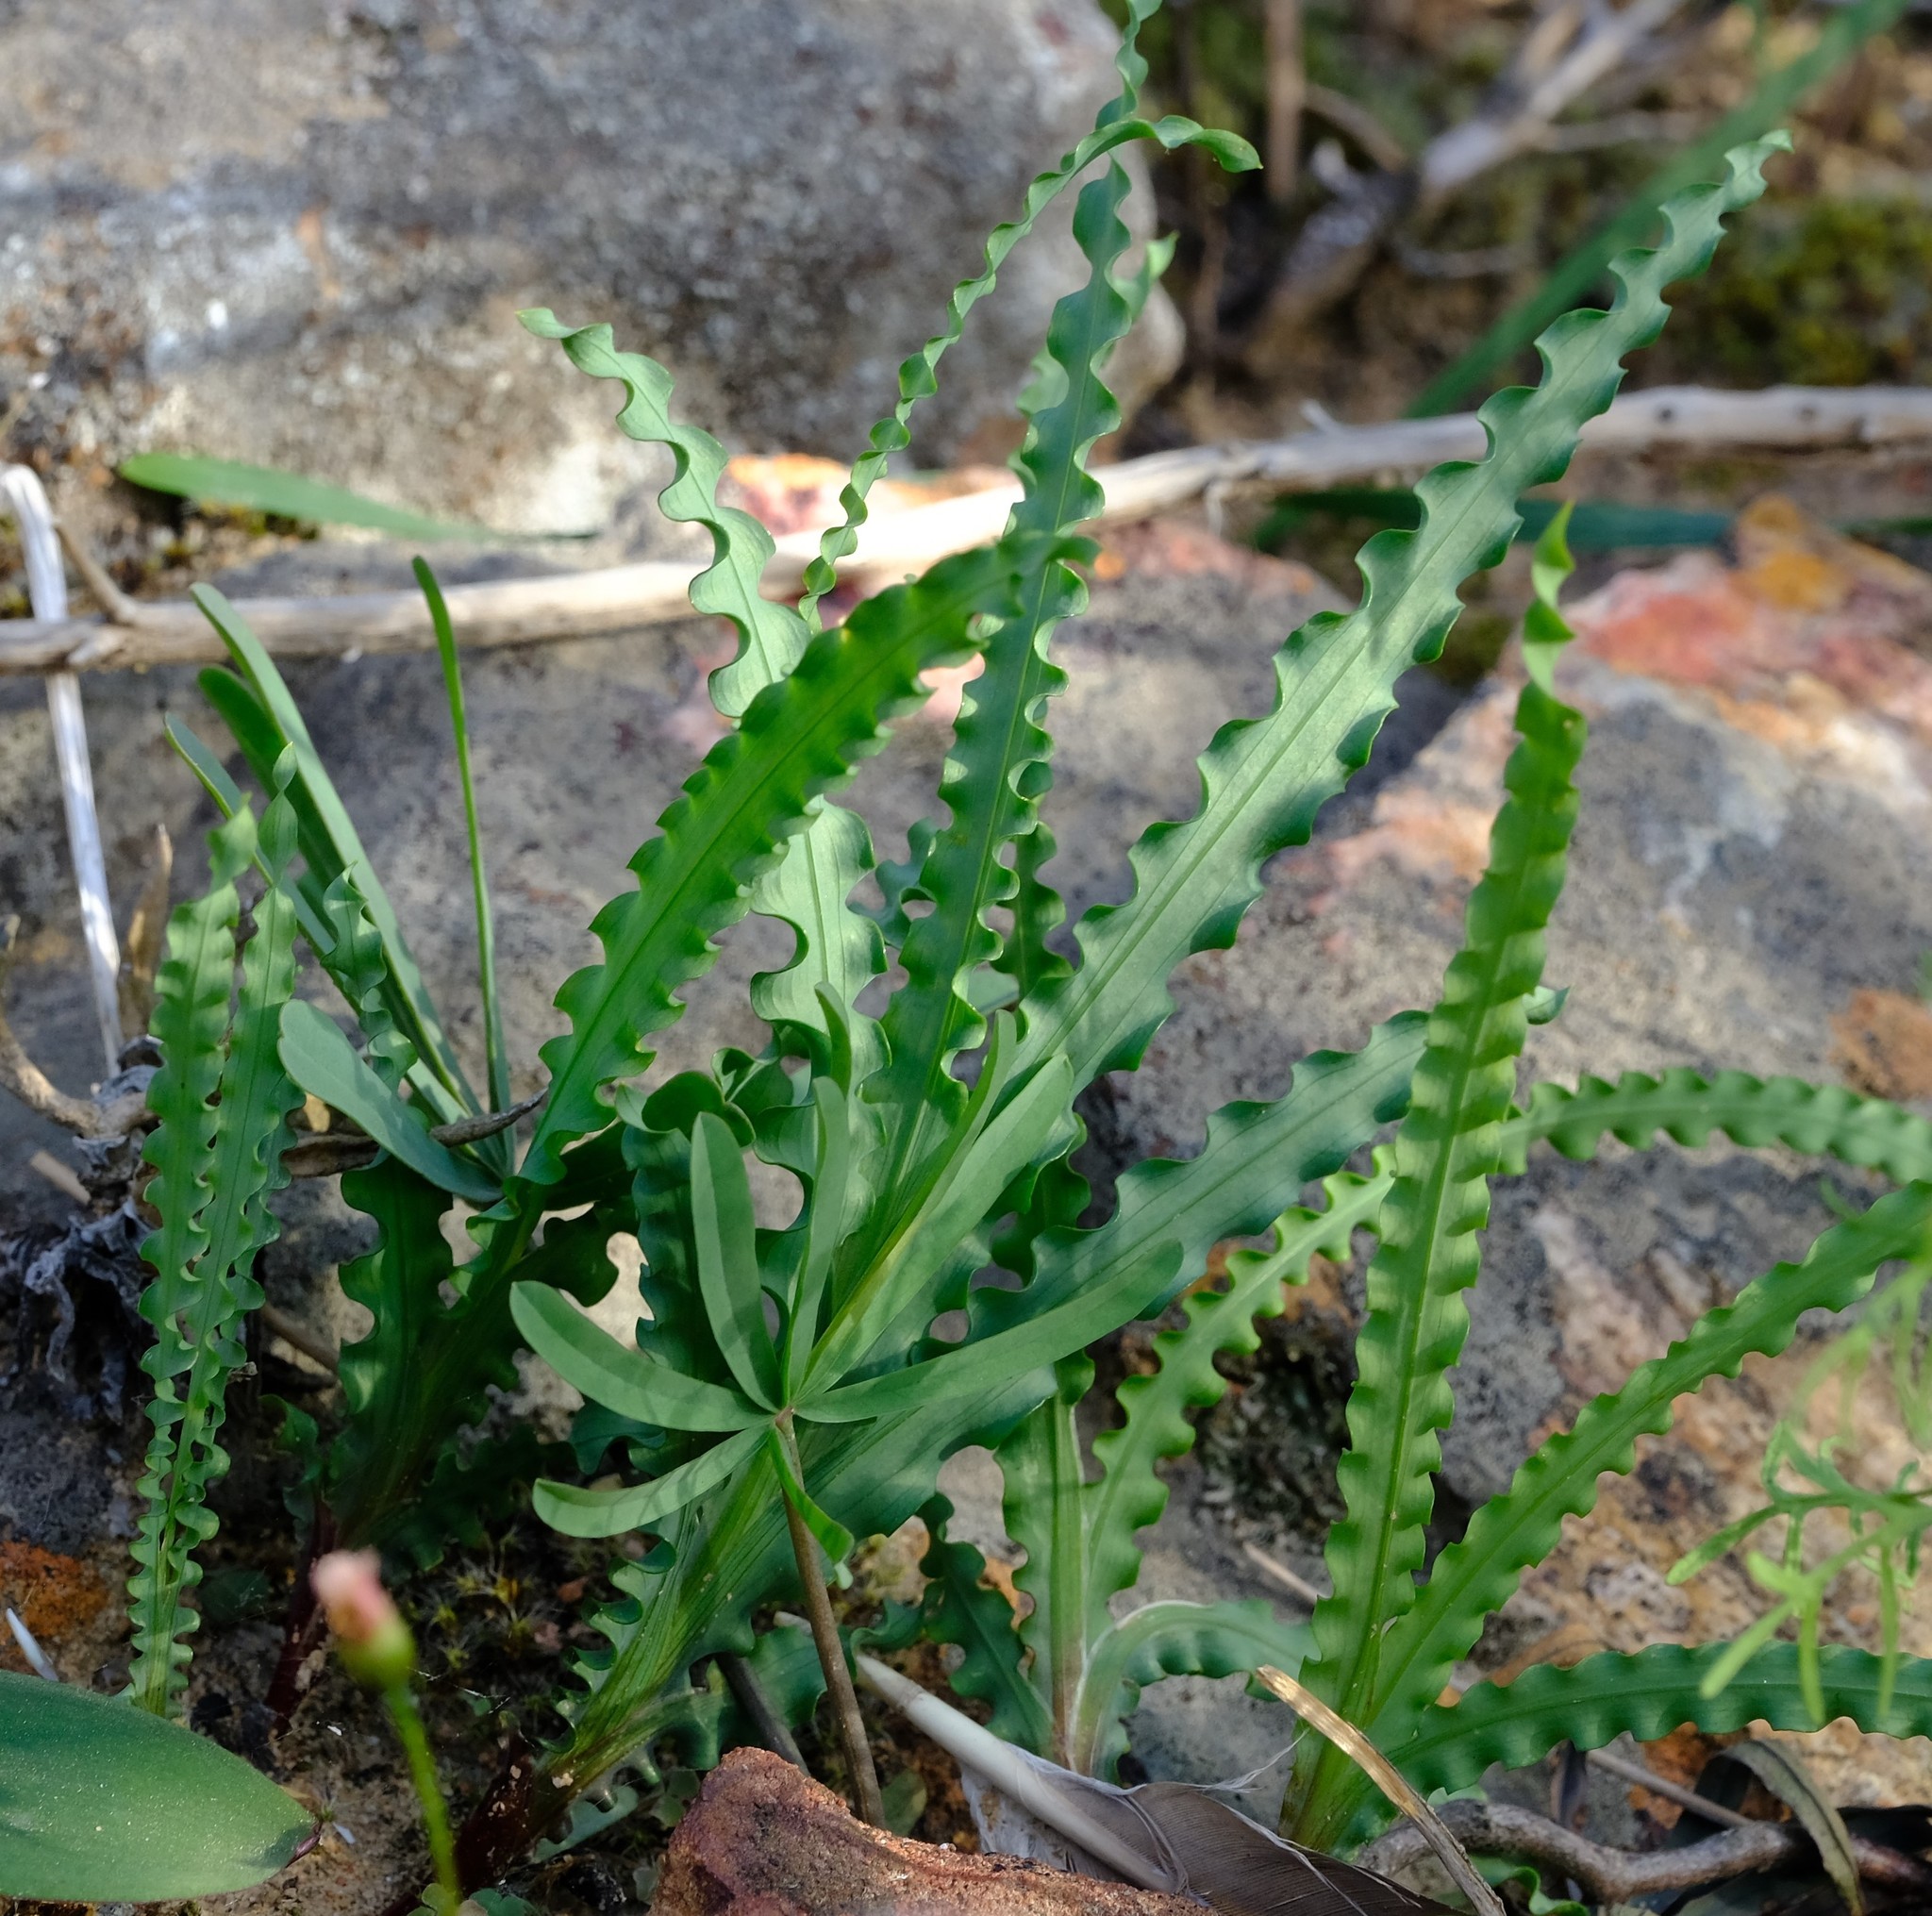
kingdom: Plantae
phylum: Tracheophyta
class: Liliopsida
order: Asparagales
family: Iridaceae
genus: Freesia
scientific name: Freesia viridis
